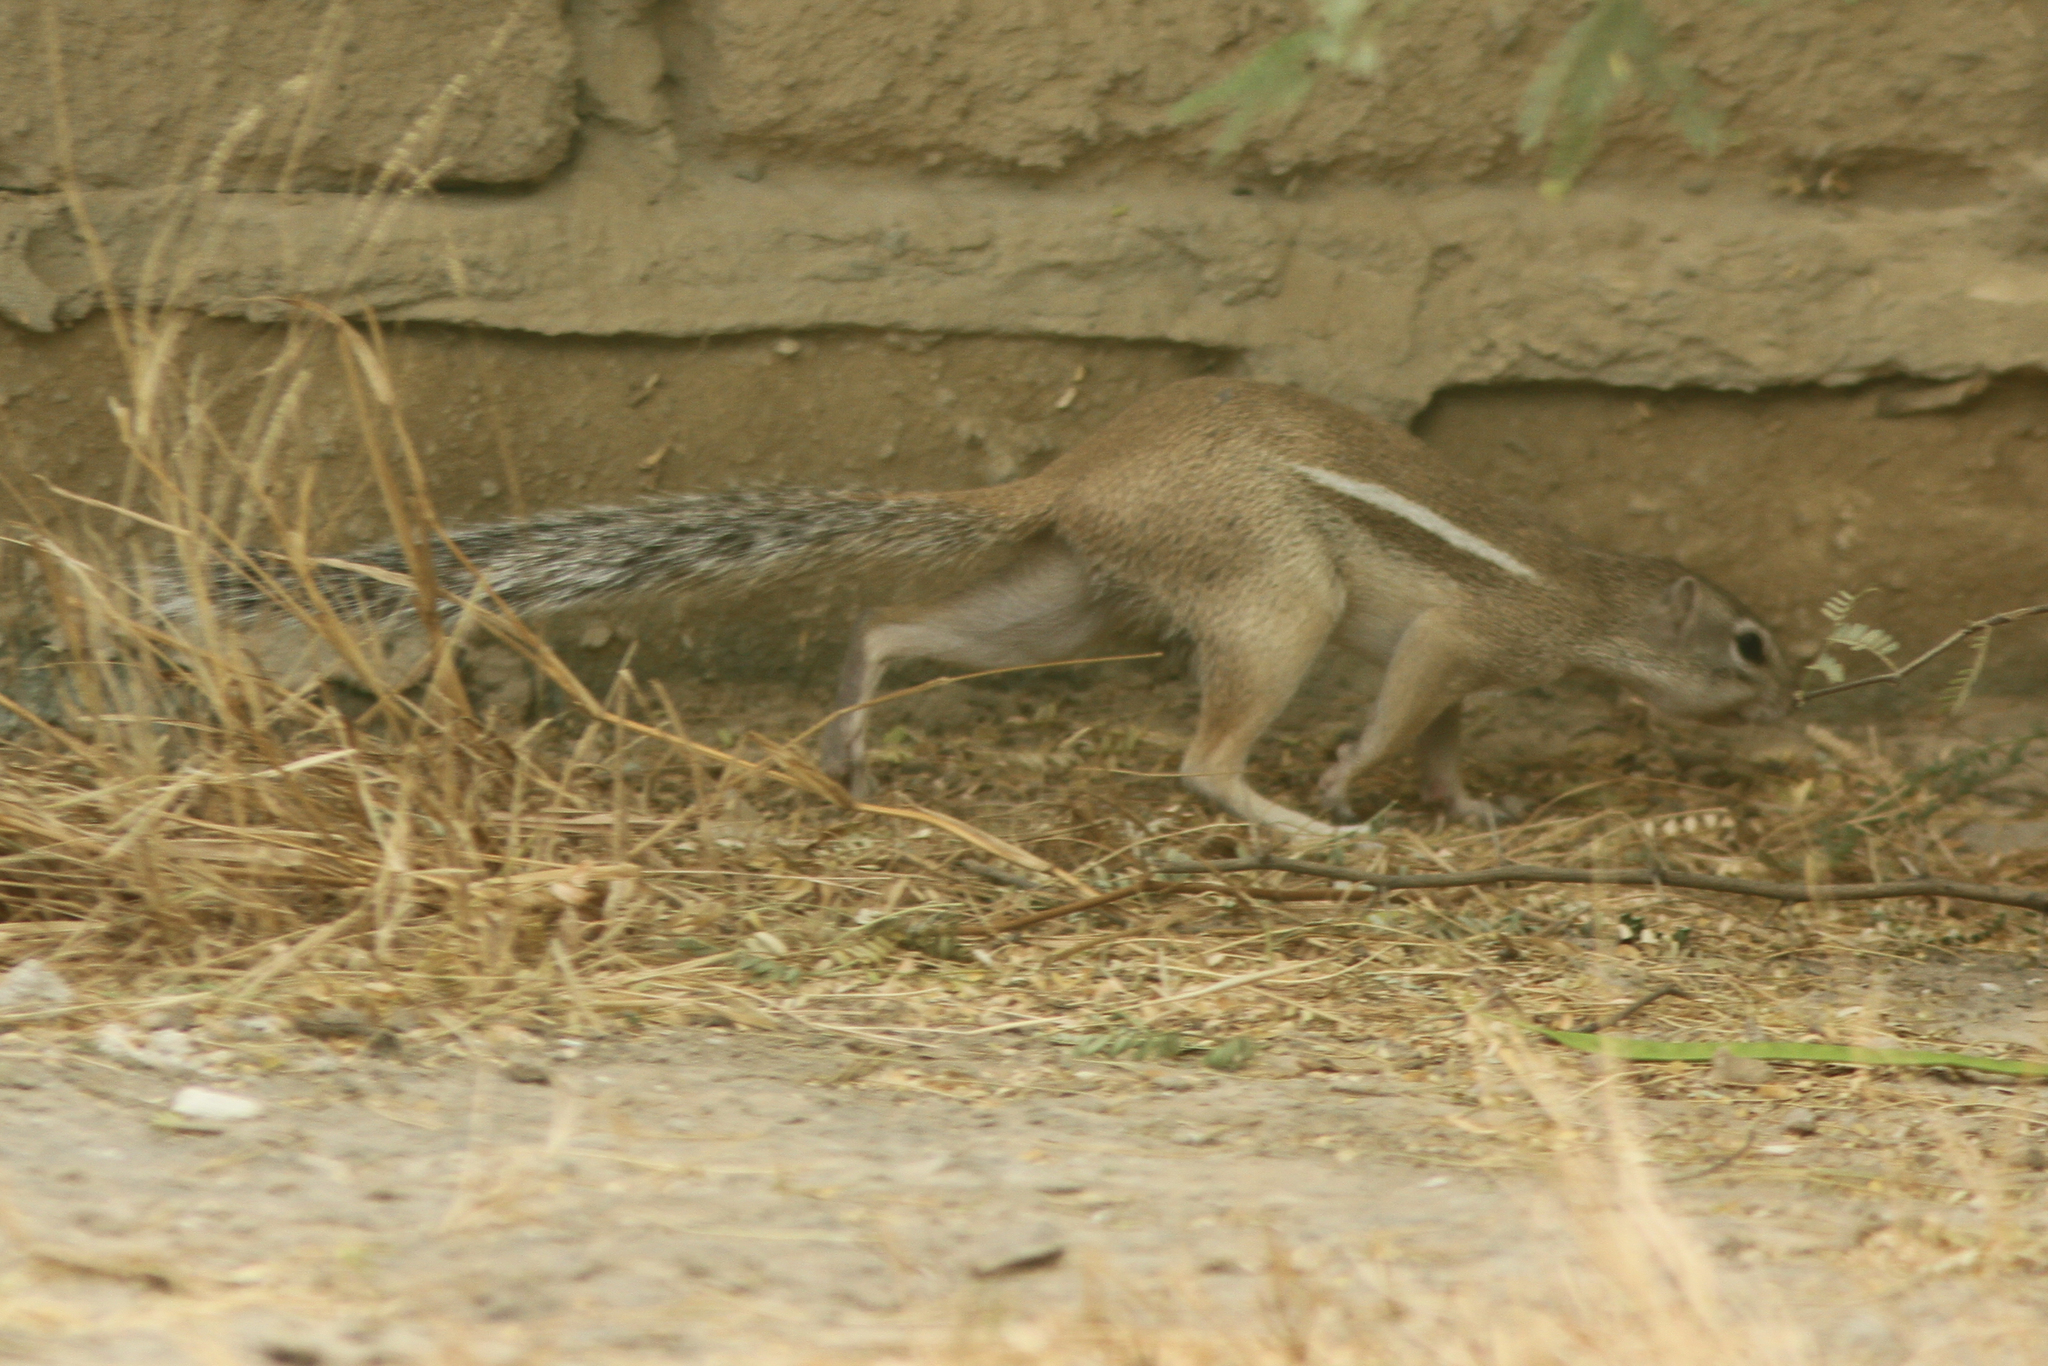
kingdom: Animalia
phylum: Chordata
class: Mammalia
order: Rodentia
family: Sciuridae
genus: Xerus
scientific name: Xerus erythropus
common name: Striped ground squirrel
